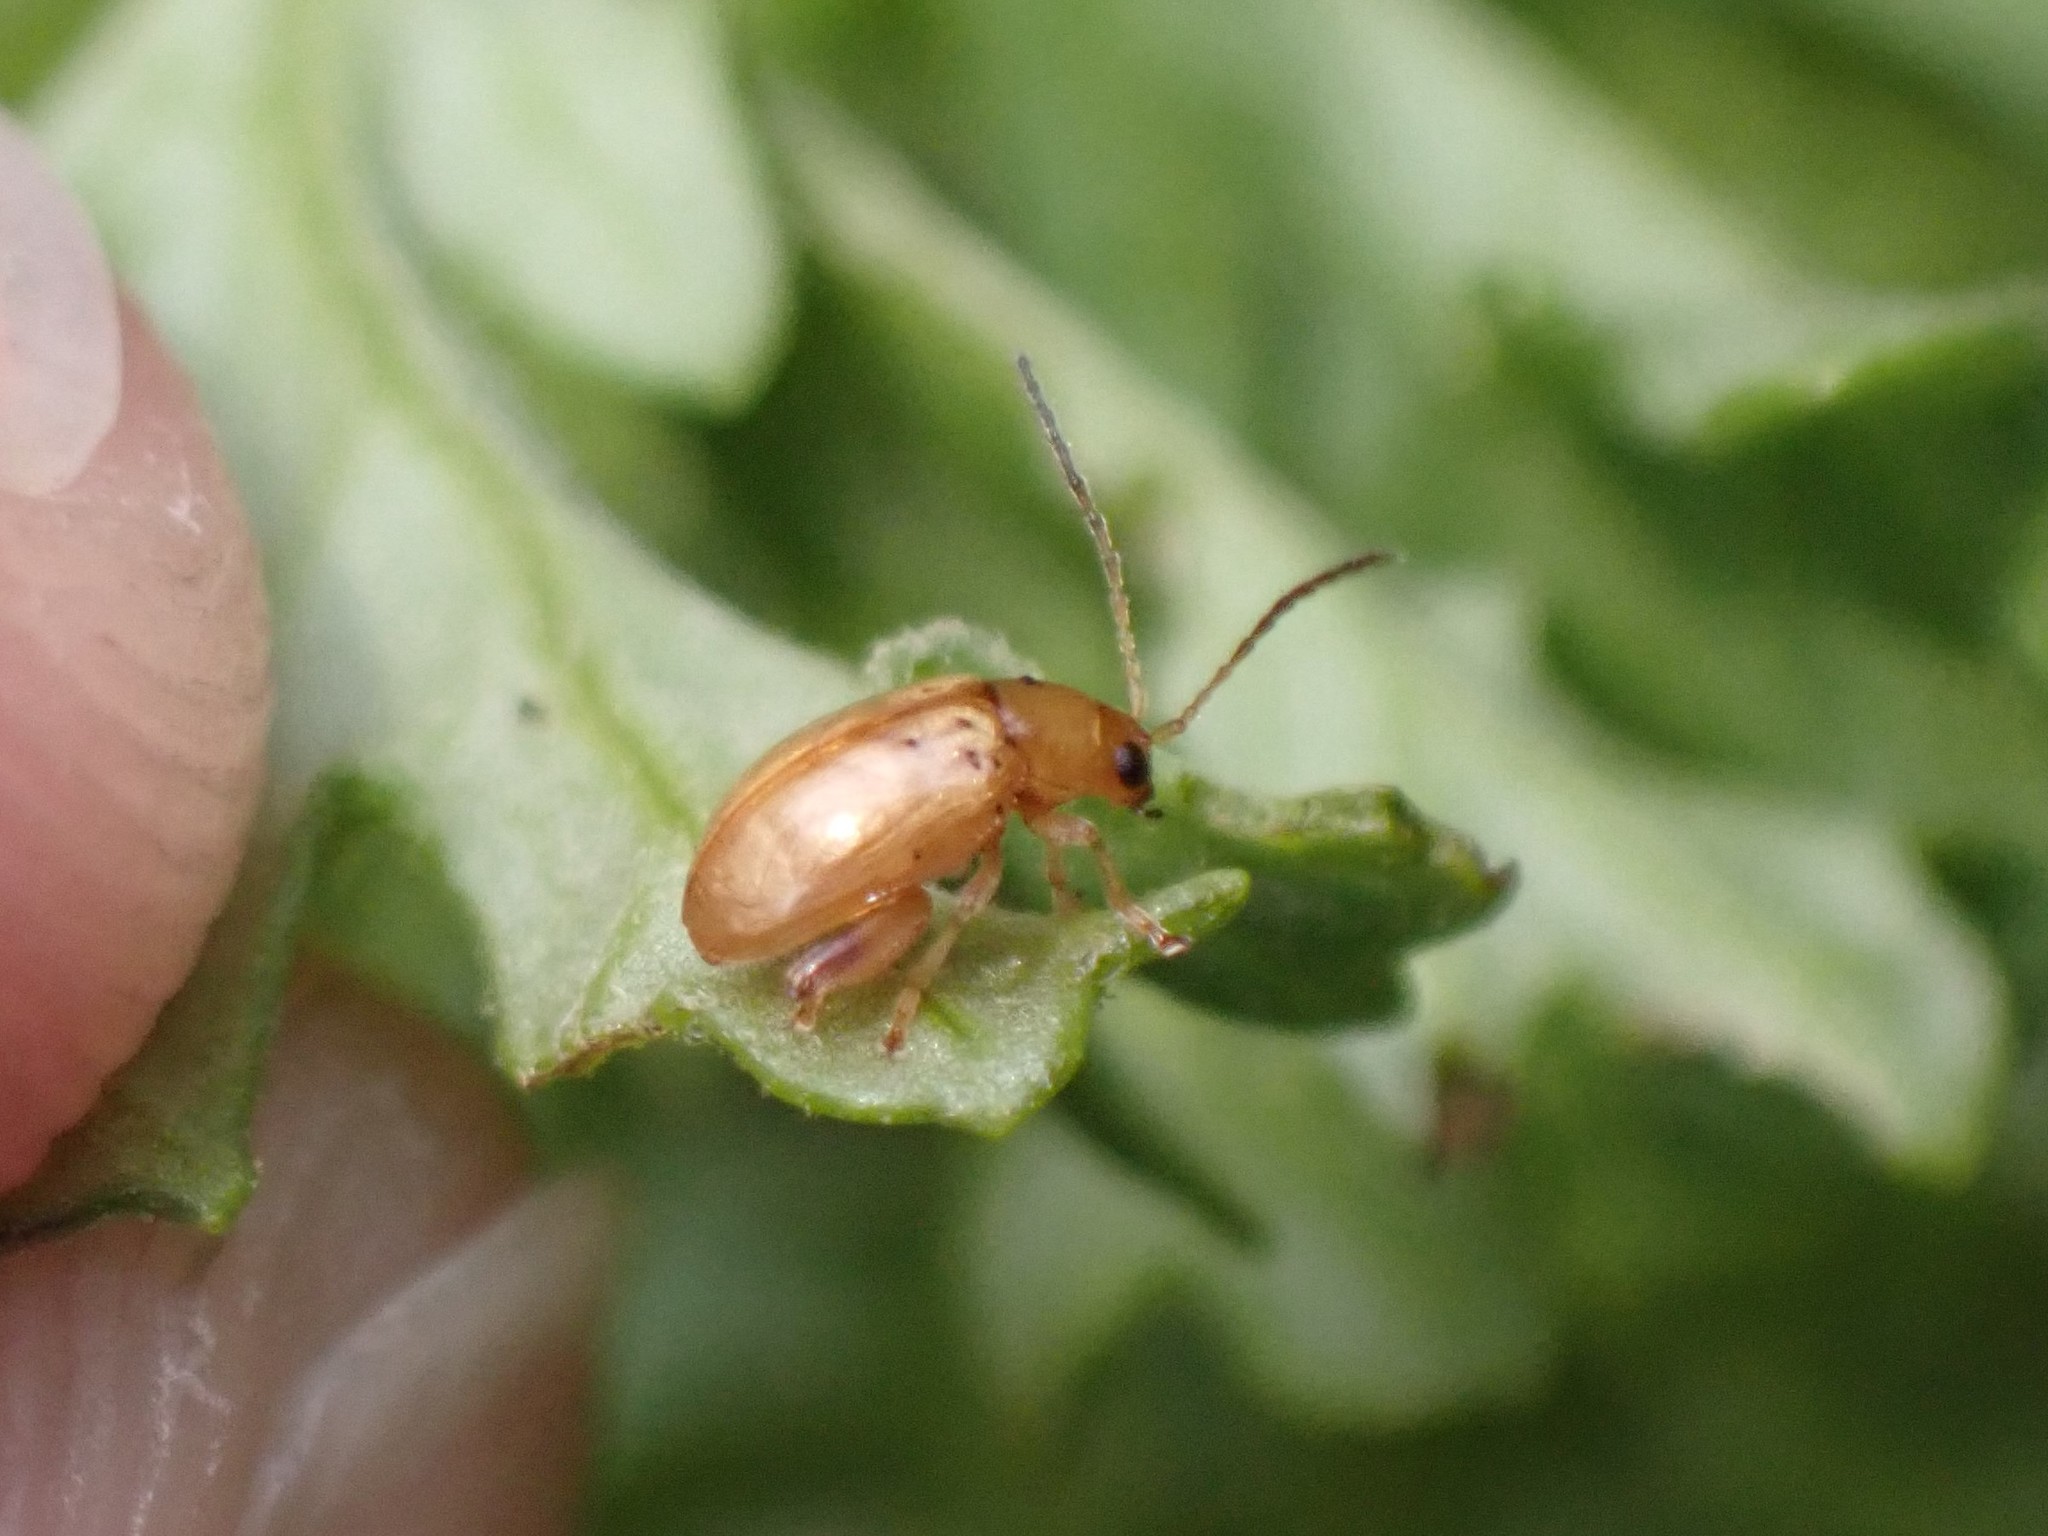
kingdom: Animalia
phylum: Arthropoda
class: Insecta
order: Coleoptera
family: Chrysomelidae
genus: Longitarsus
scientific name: Longitarsus jacobaeae
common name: Tansy ragwort flea beetle
